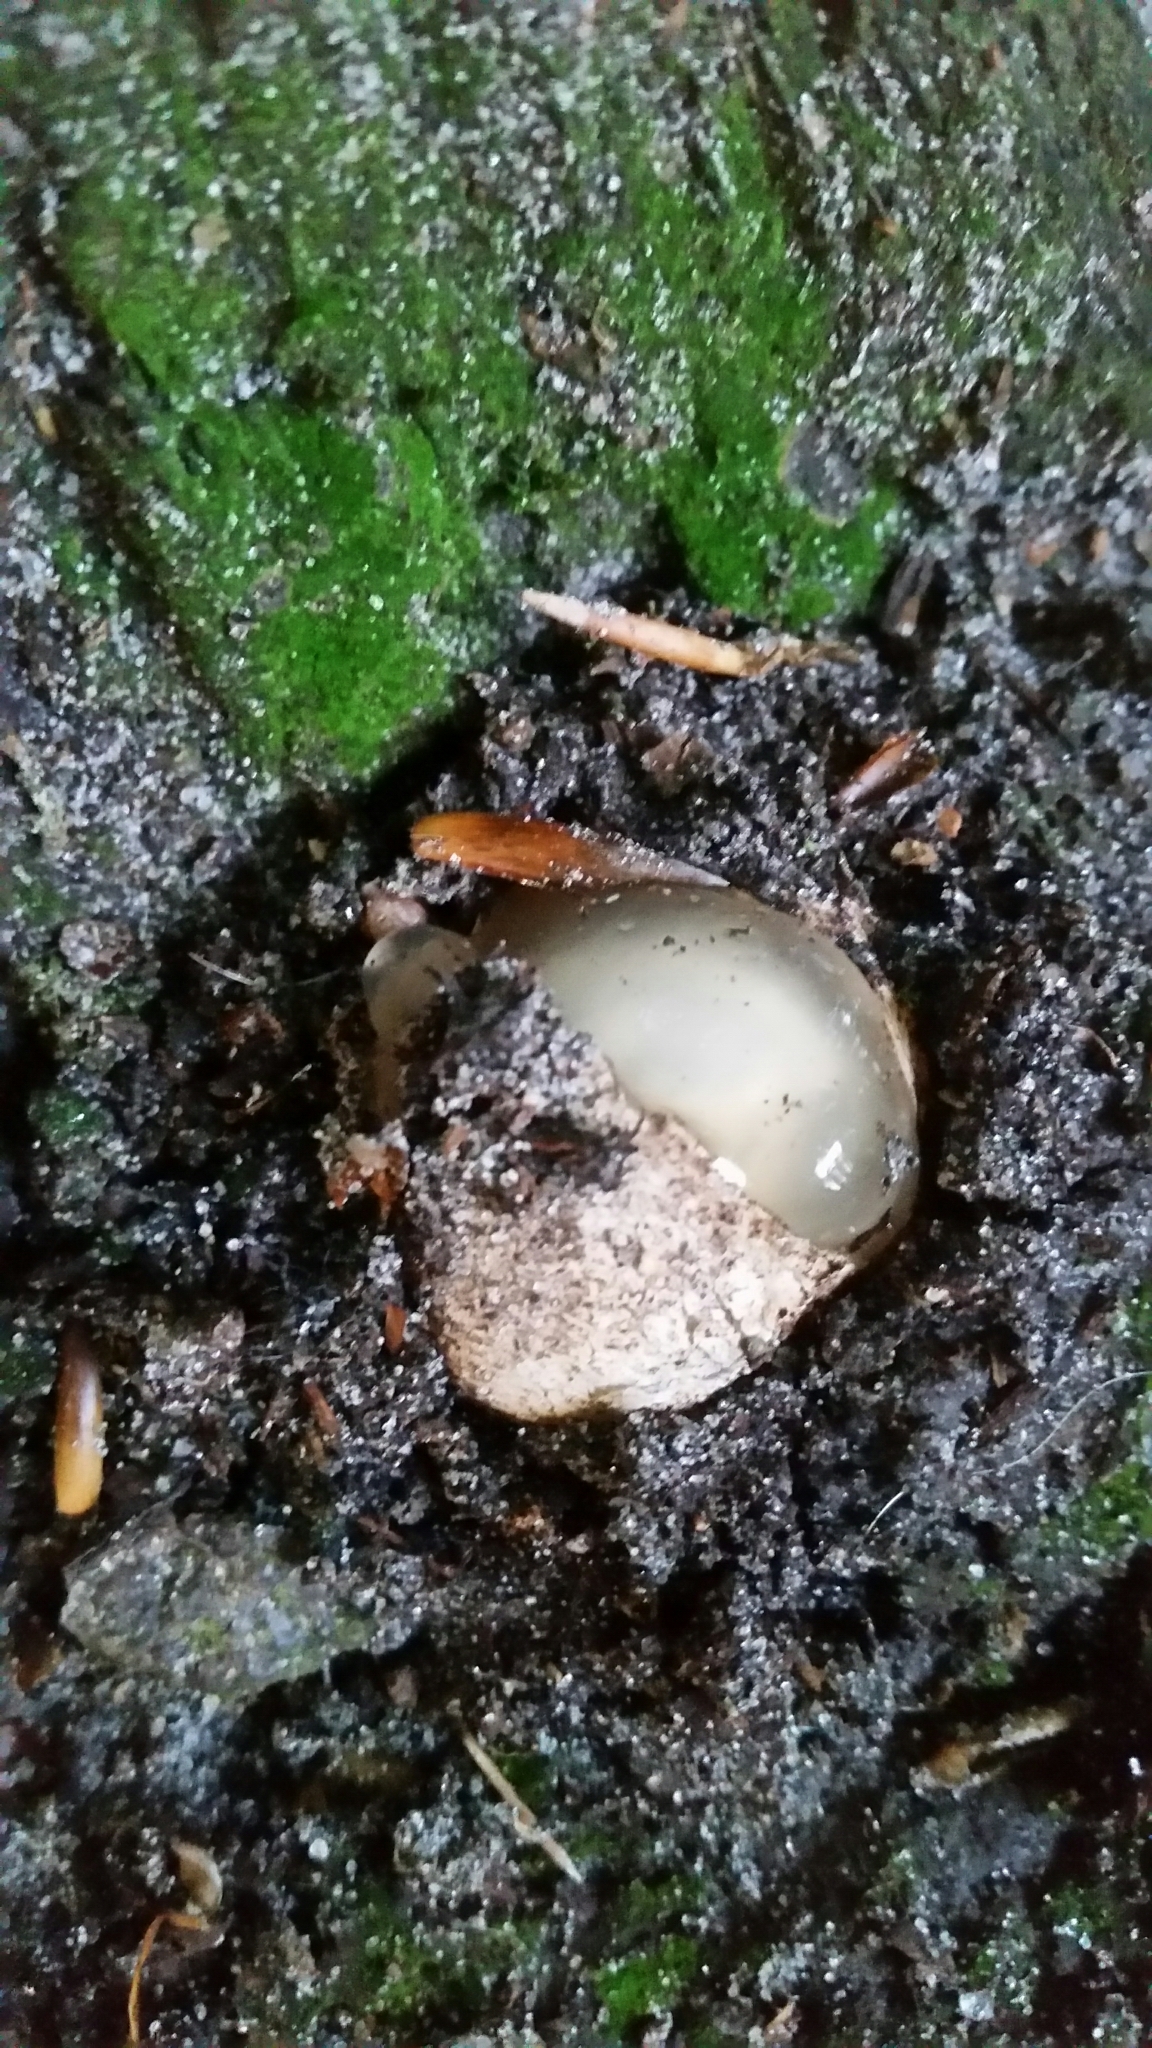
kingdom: Fungi
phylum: Basidiomycota
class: Agaricomycetes
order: Phallales
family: Phallaceae
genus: Phallus
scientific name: Phallus impudicus
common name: Common stinkhorn
